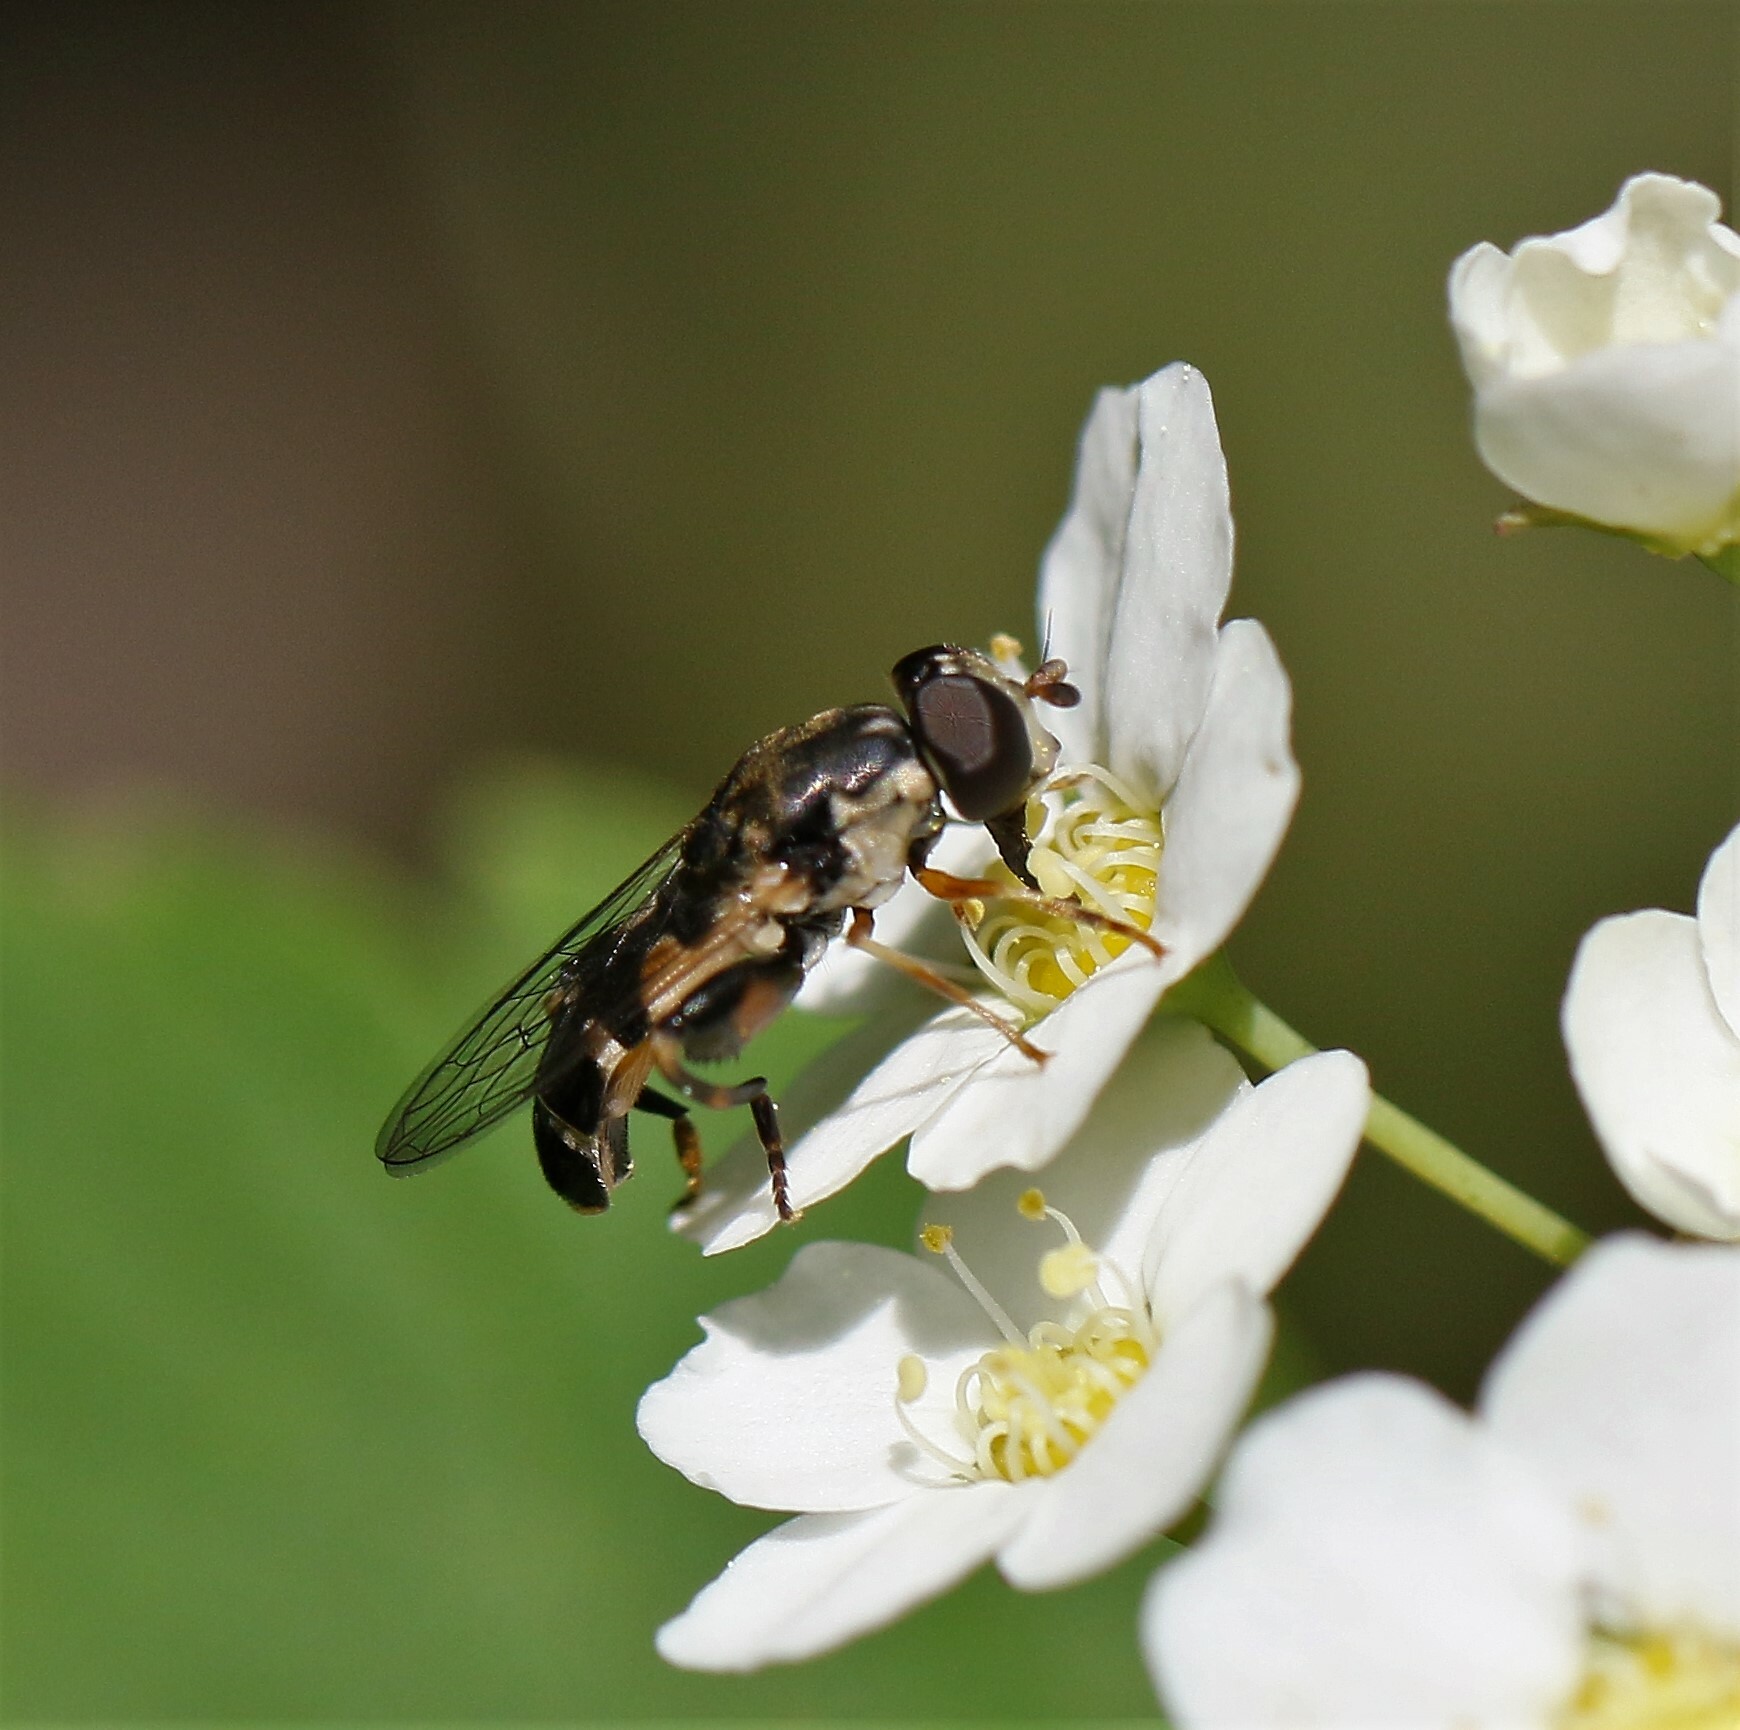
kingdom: Animalia
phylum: Arthropoda
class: Insecta
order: Diptera
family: Syrphidae
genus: Syritta
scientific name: Syritta pipiens
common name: Hover fly
